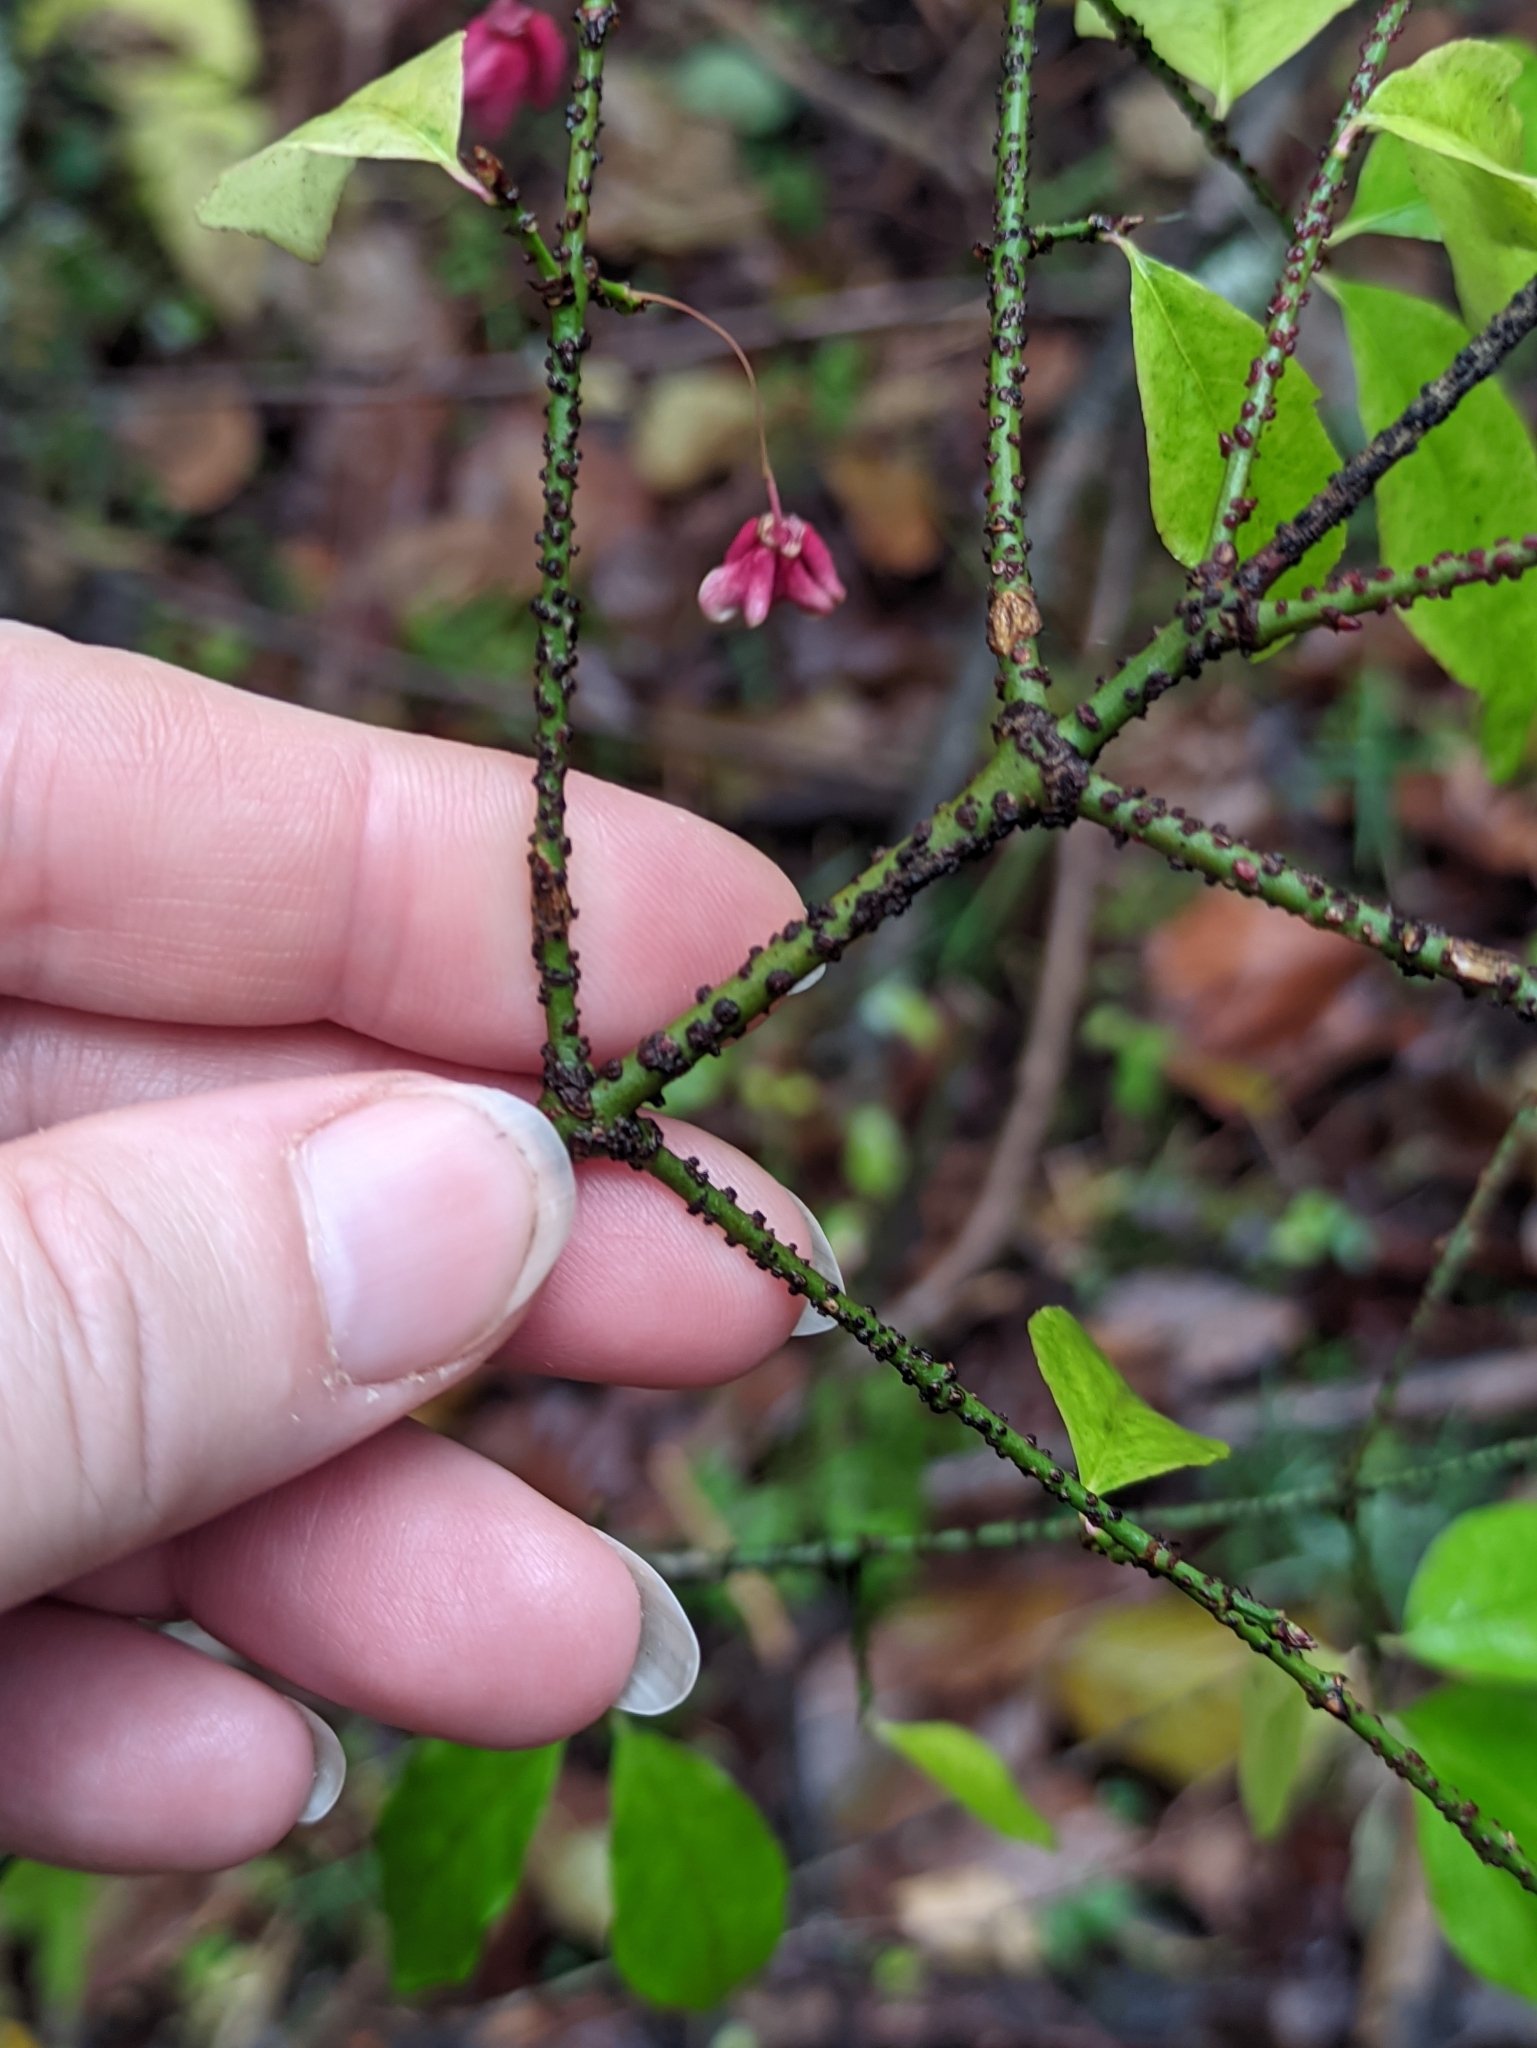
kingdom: Plantae
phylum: Tracheophyta
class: Magnoliopsida
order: Celastrales
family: Celastraceae
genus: Euonymus
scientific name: Euonymus verrucosus
